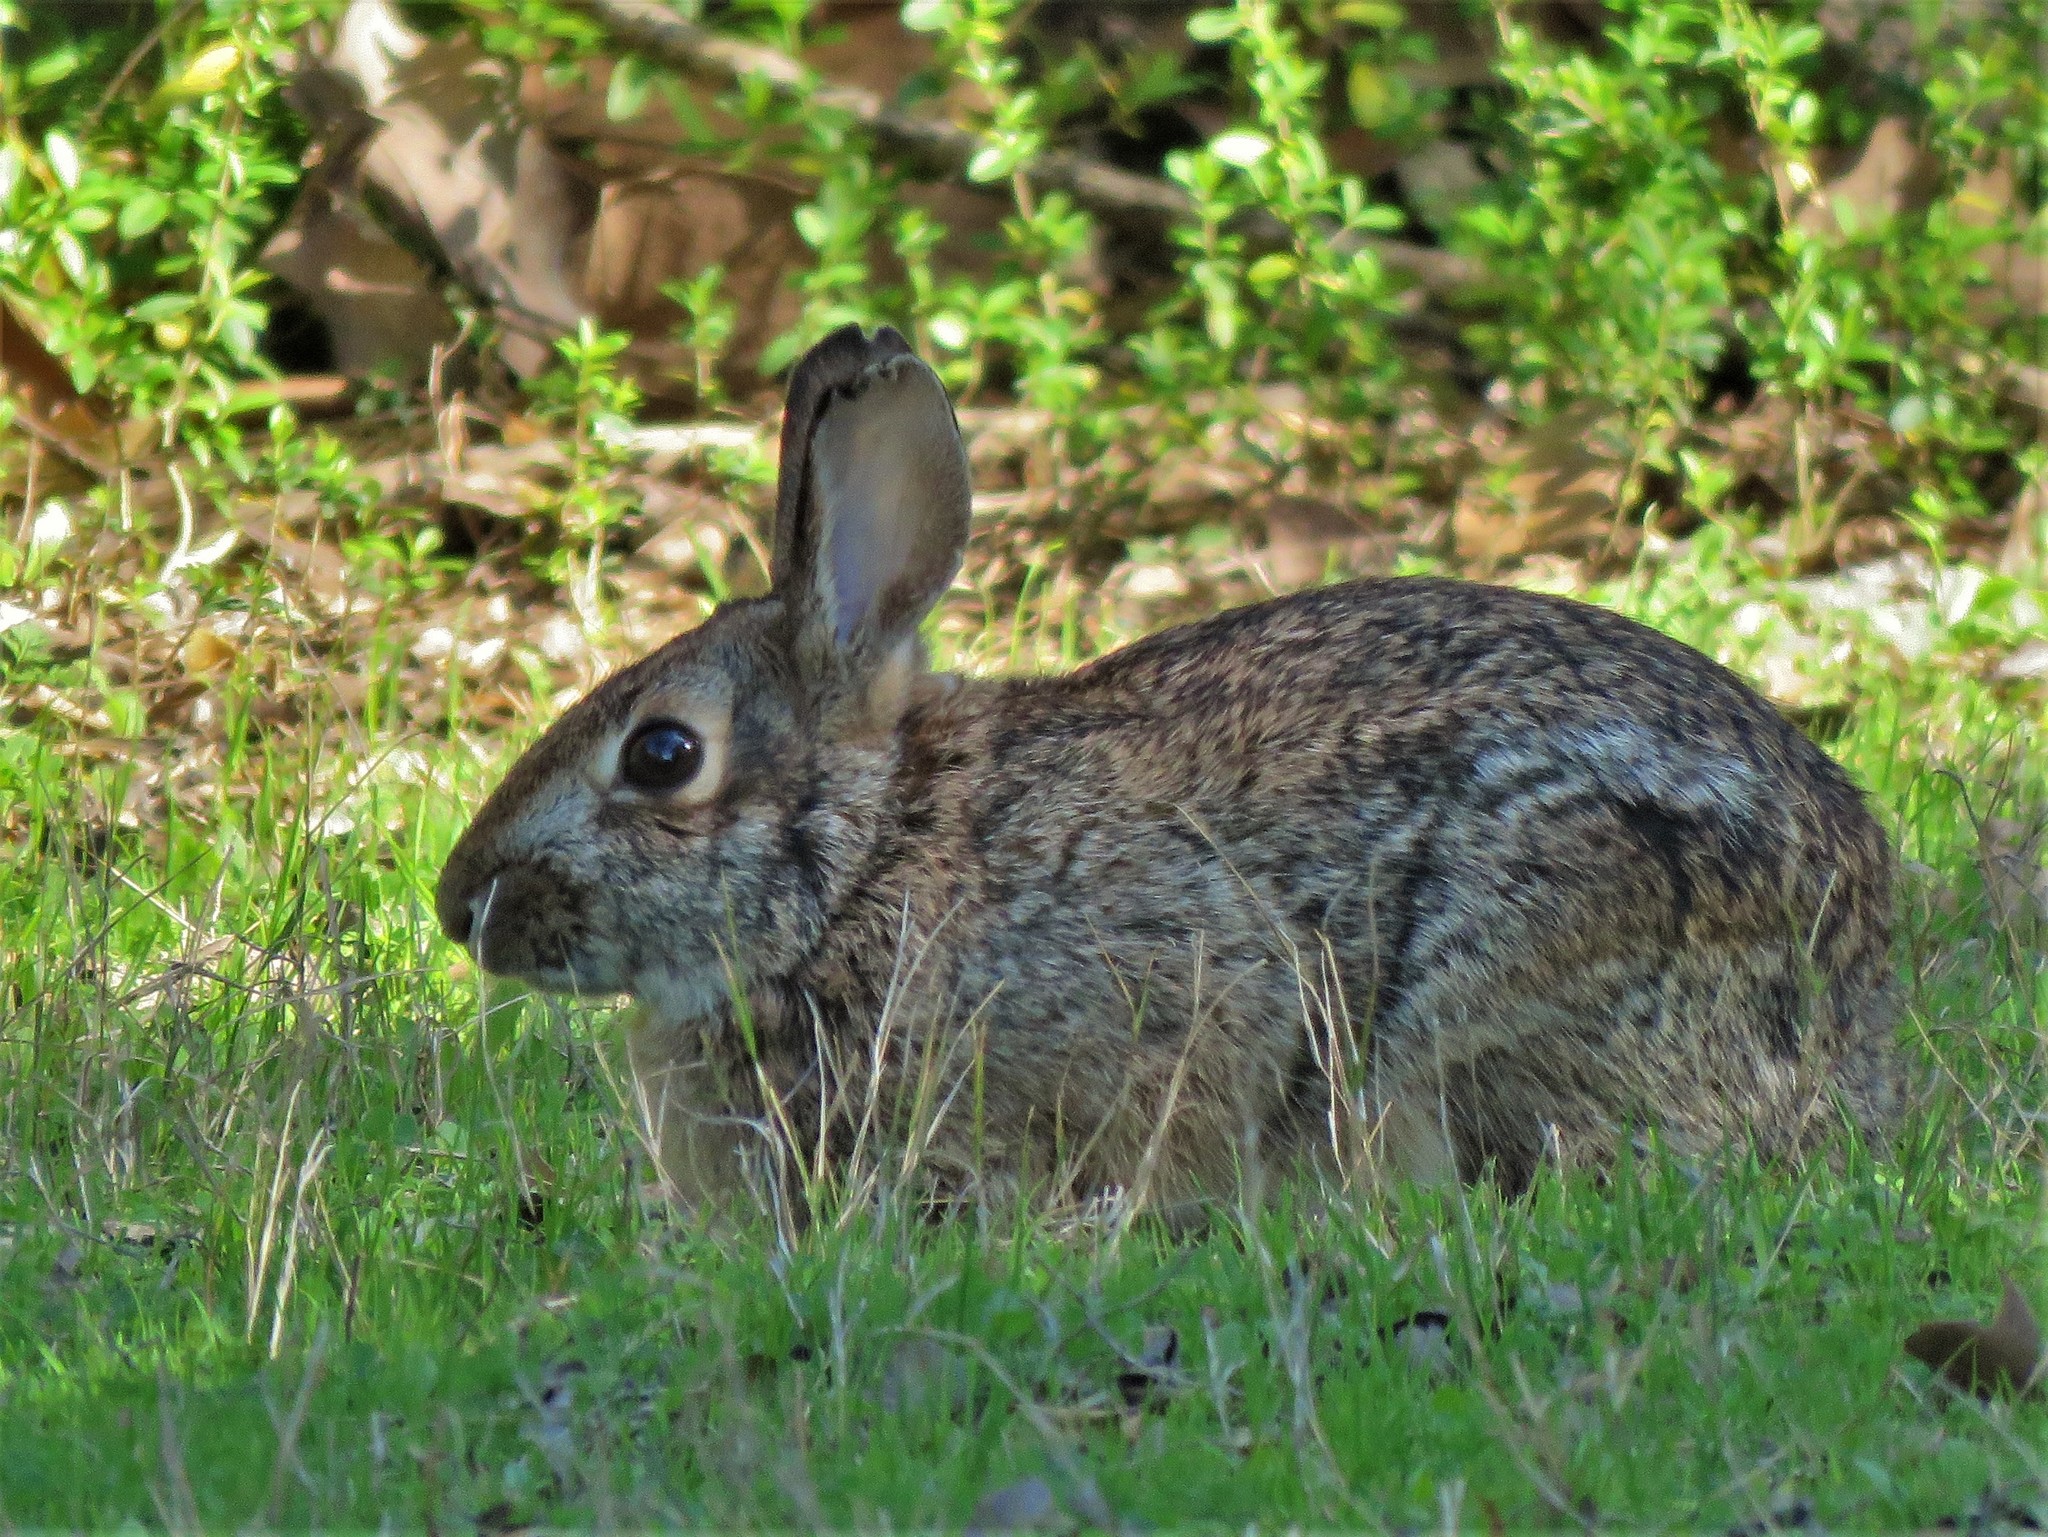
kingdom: Animalia
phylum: Chordata
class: Mammalia
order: Lagomorpha
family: Leporidae
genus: Sylvilagus
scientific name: Sylvilagus floridanus
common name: Eastern cottontail
